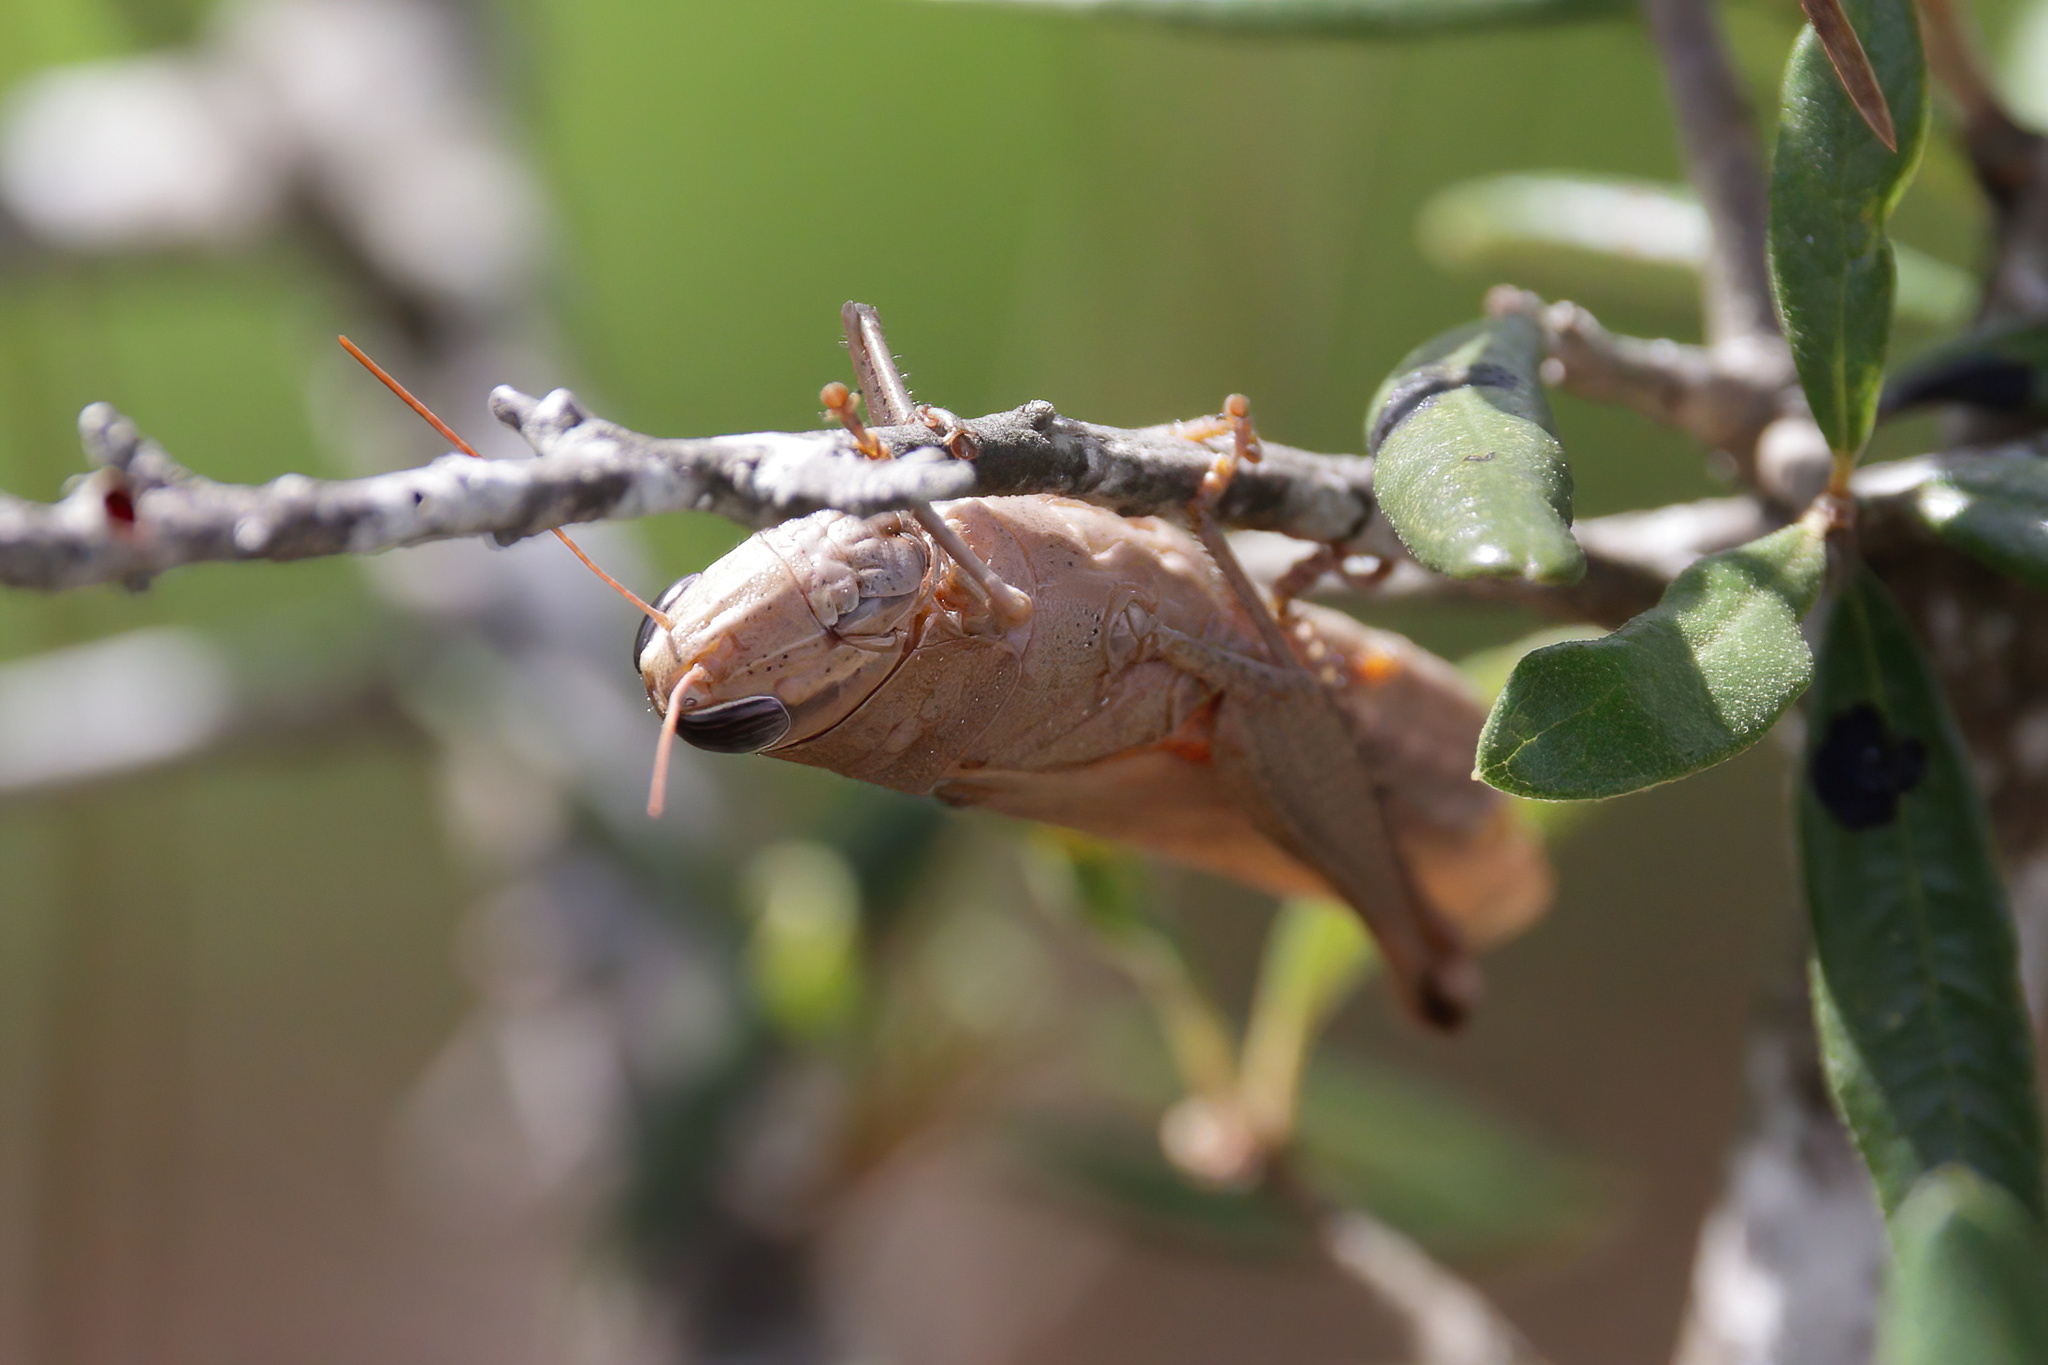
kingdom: Animalia
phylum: Arthropoda
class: Insecta
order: Orthoptera
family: Acrididae
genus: Schistocerca
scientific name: Schistocerca rubiginosa
